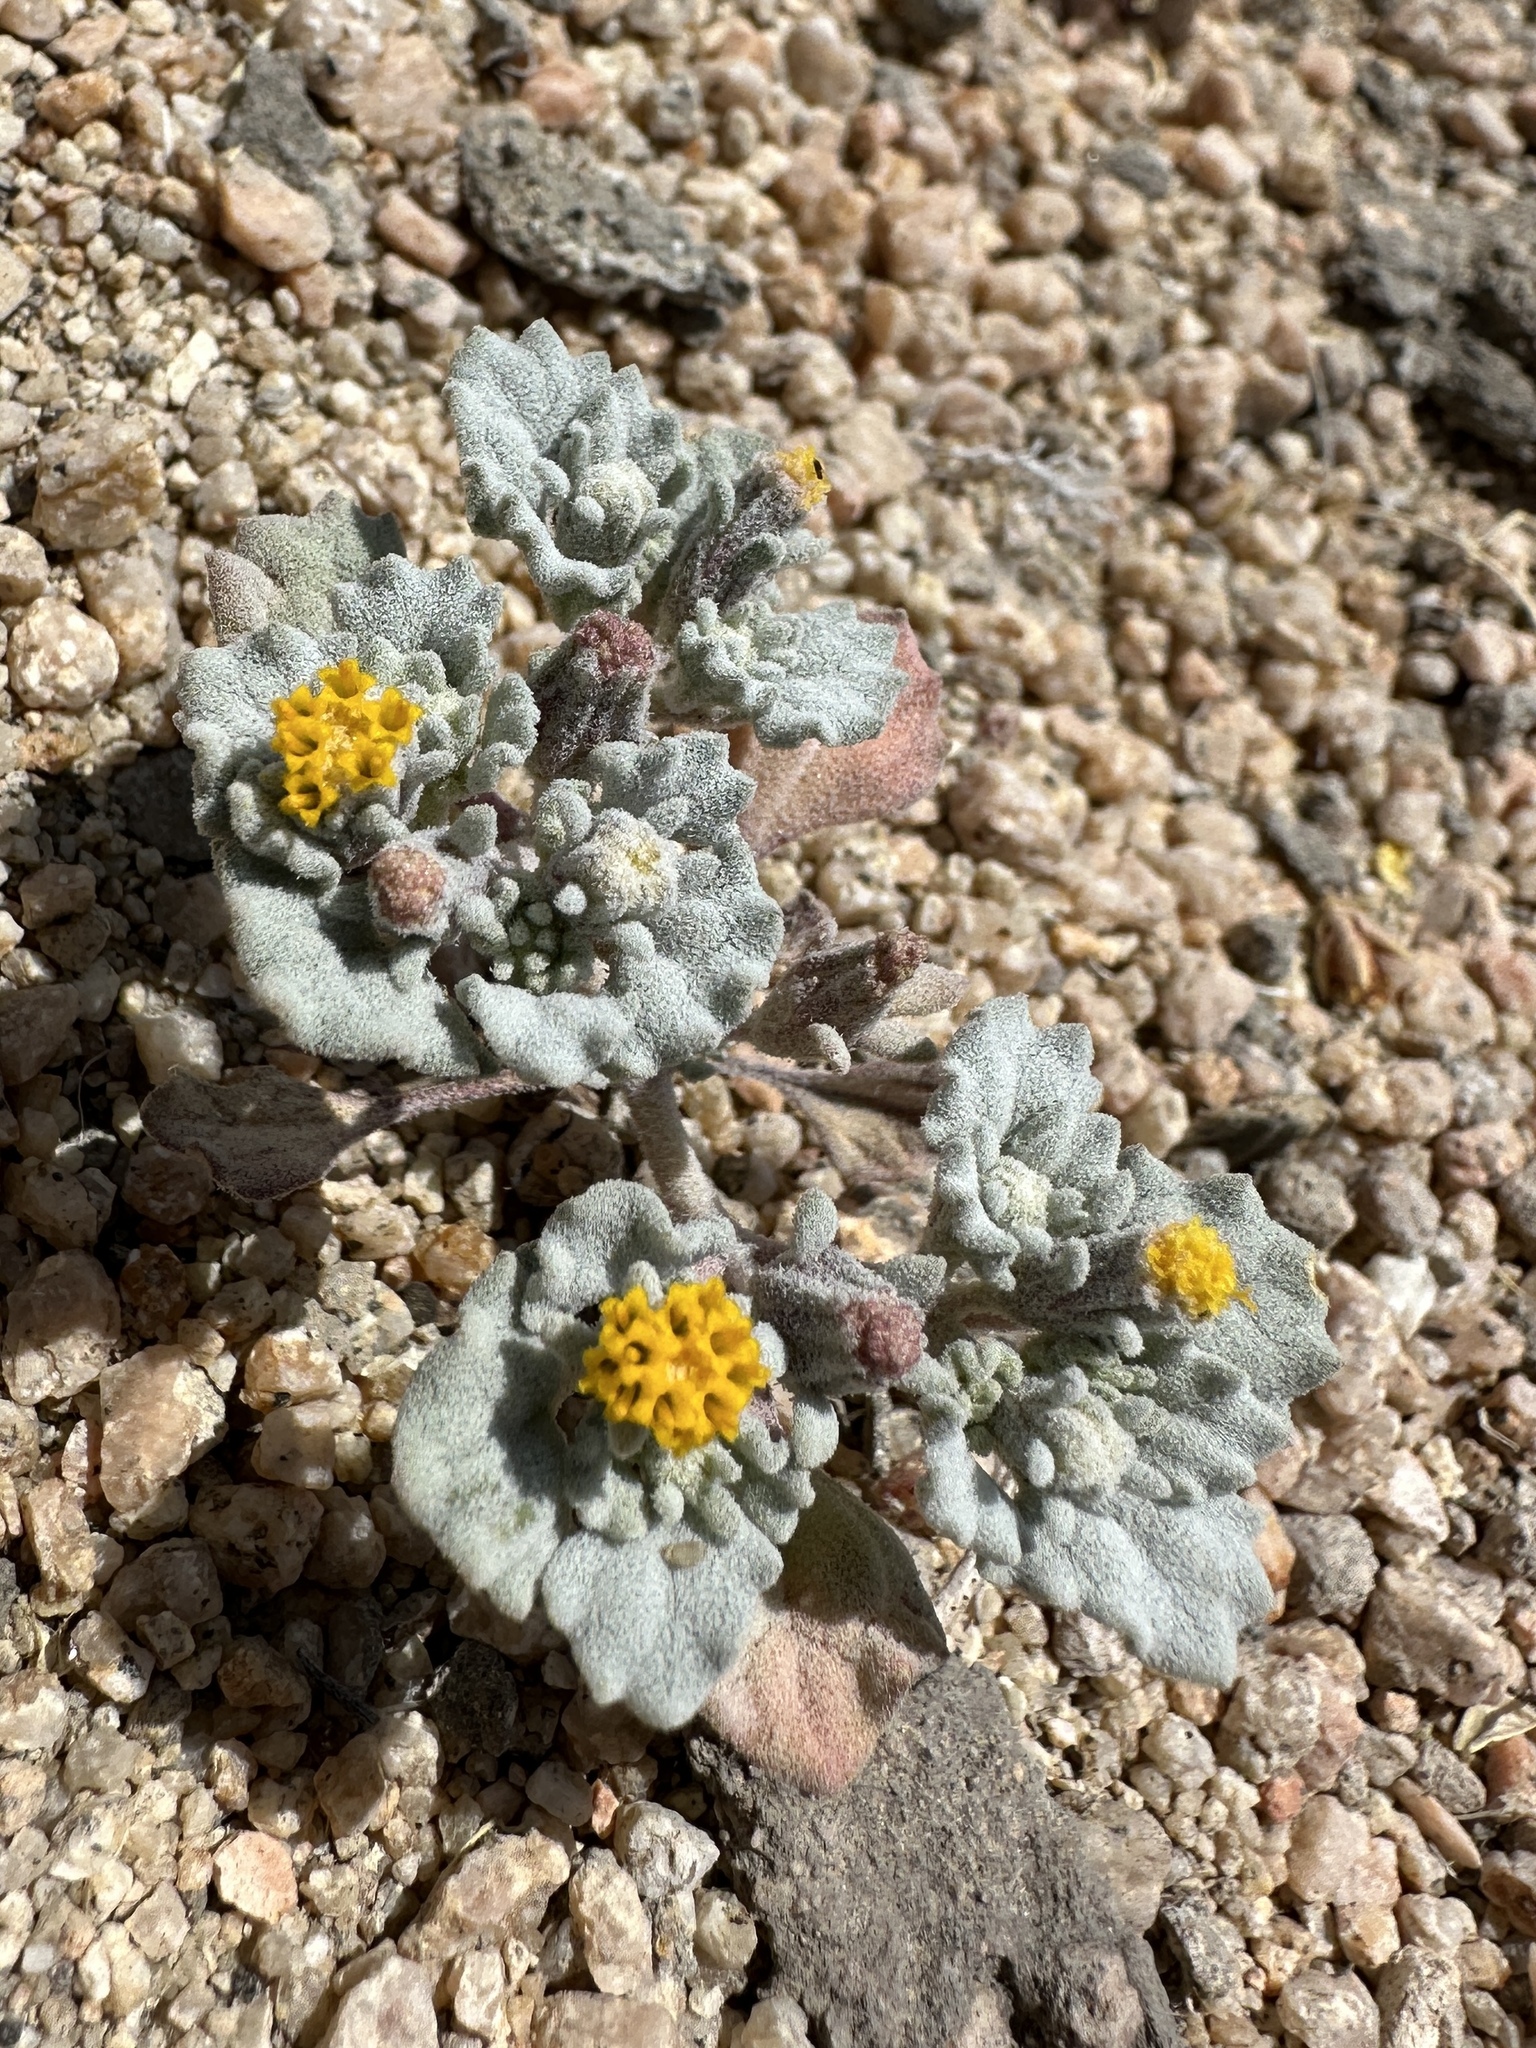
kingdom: Plantae
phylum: Tracheophyta
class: Magnoliopsida
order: Asterales
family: Asteraceae
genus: Psathyrotes
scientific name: Psathyrotes annua
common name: Mealy rosettes
